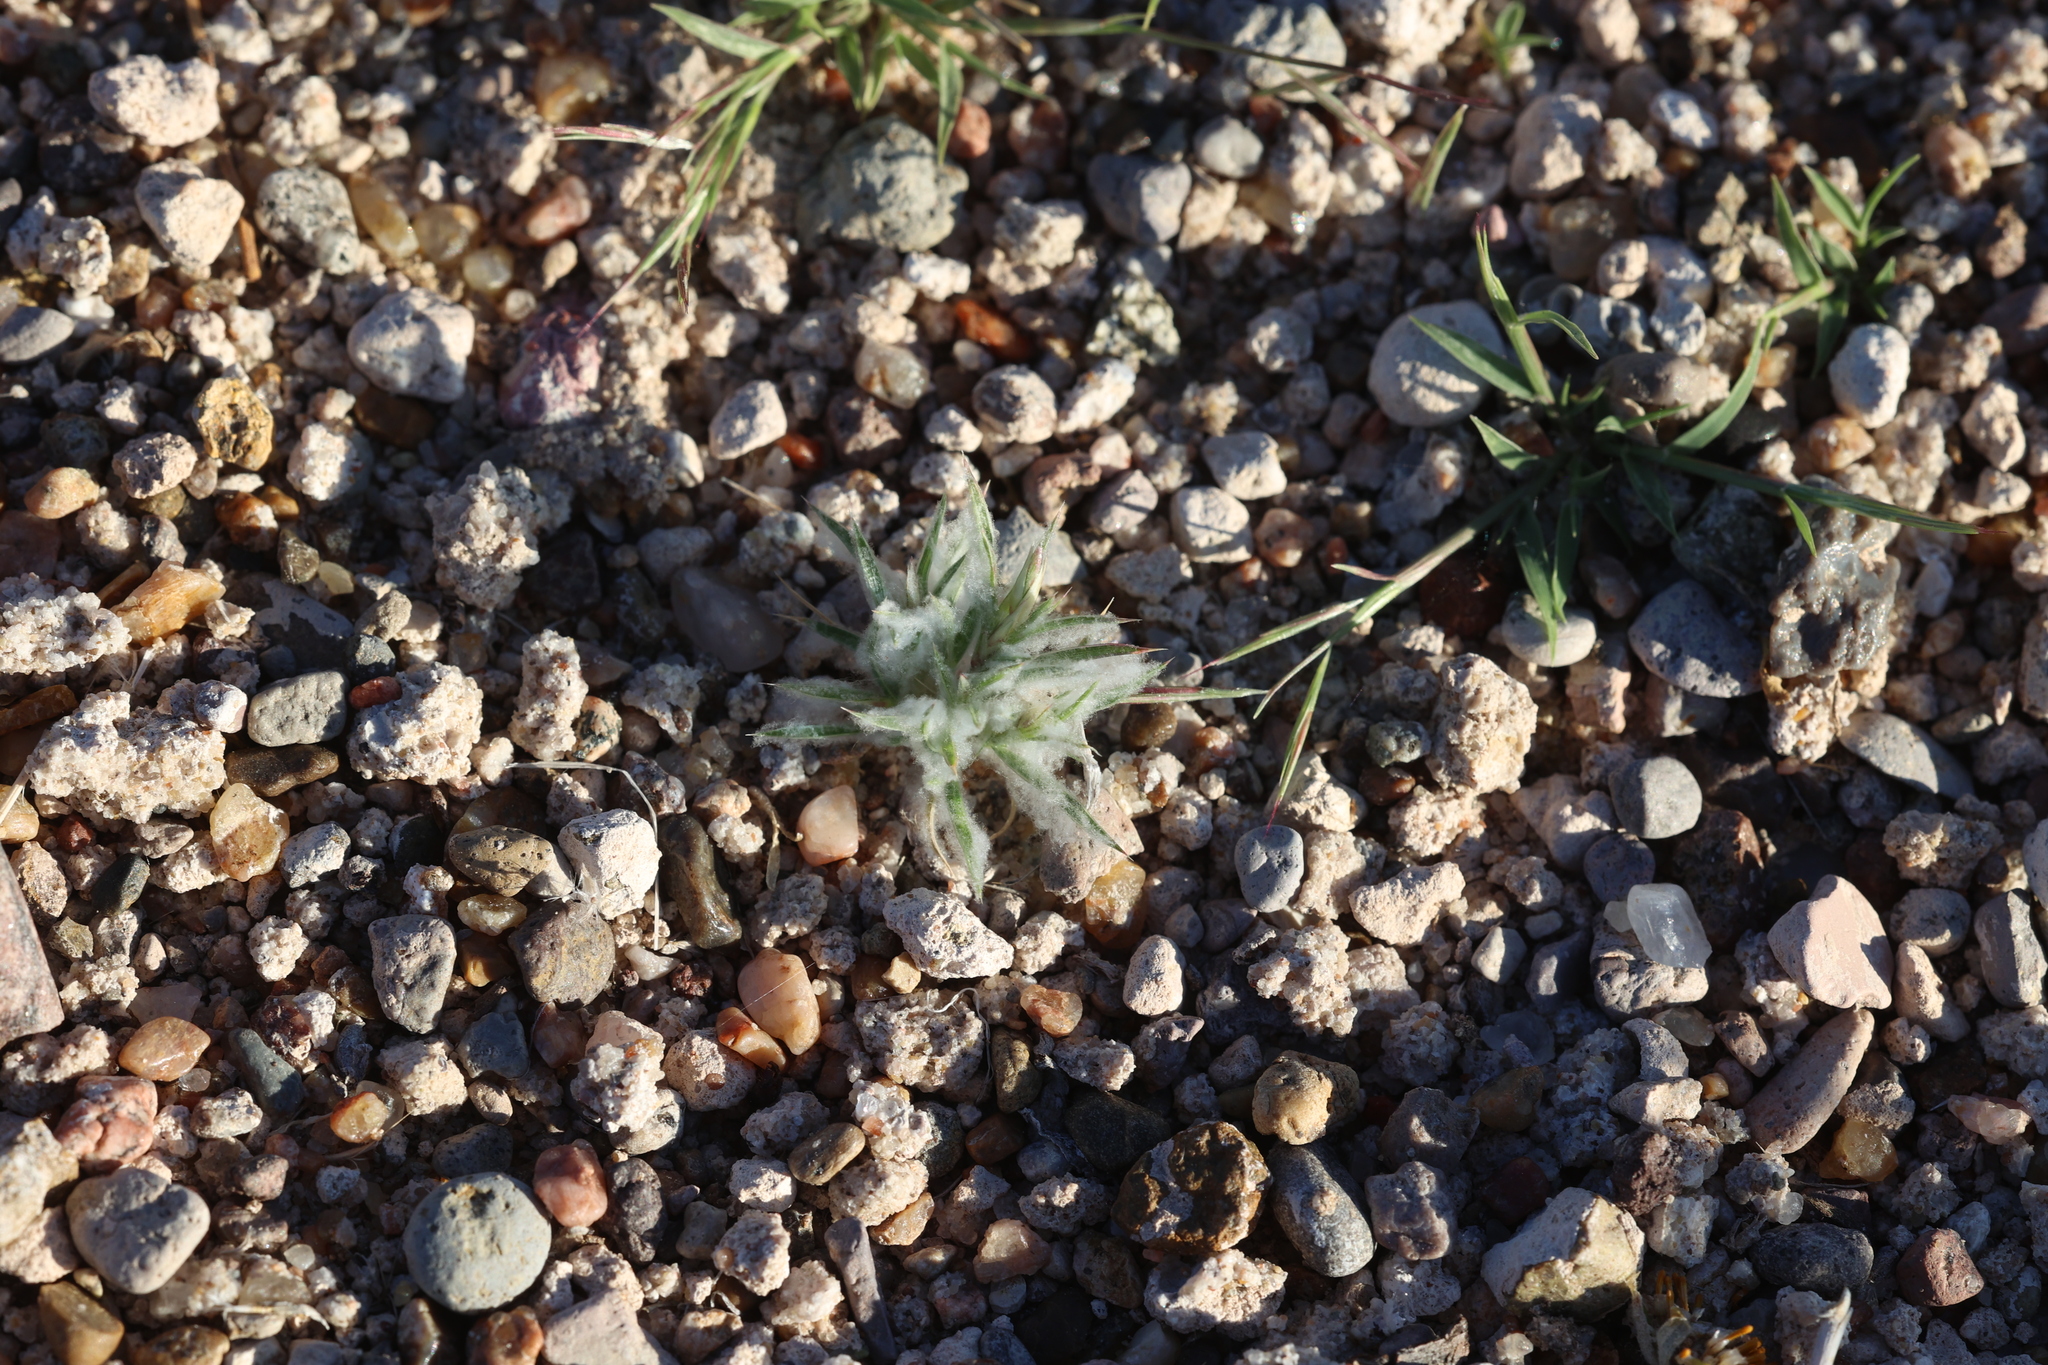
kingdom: Plantae
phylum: Tracheophyta
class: Liliopsida
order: Poales
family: Poaceae
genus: Munroa
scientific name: Munroa squarrosa
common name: False buffalo grass
